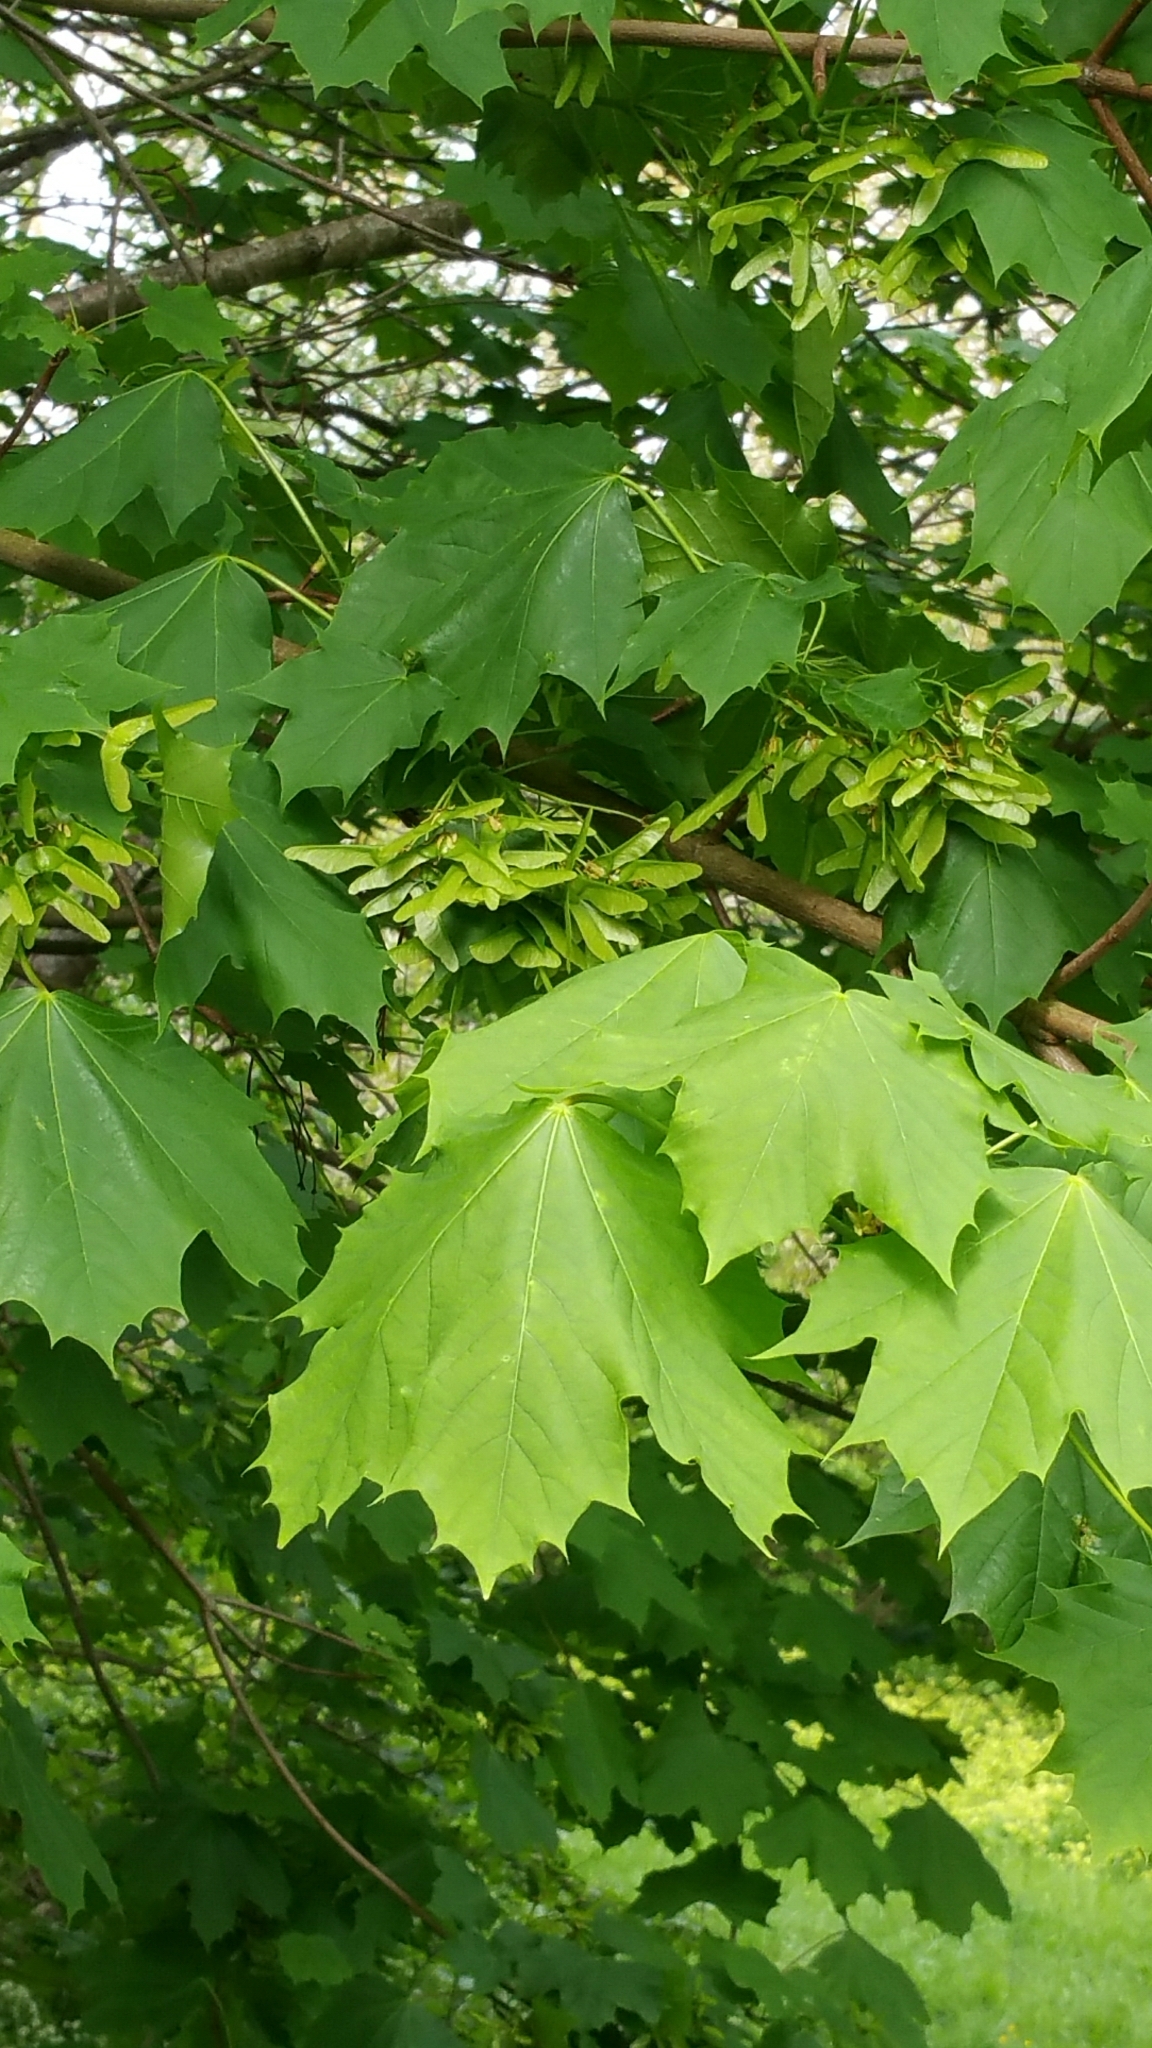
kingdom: Plantae
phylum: Tracheophyta
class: Magnoliopsida
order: Sapindales
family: Sapindaceae
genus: Acer
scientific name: Acer platanoides
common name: Norway maple
